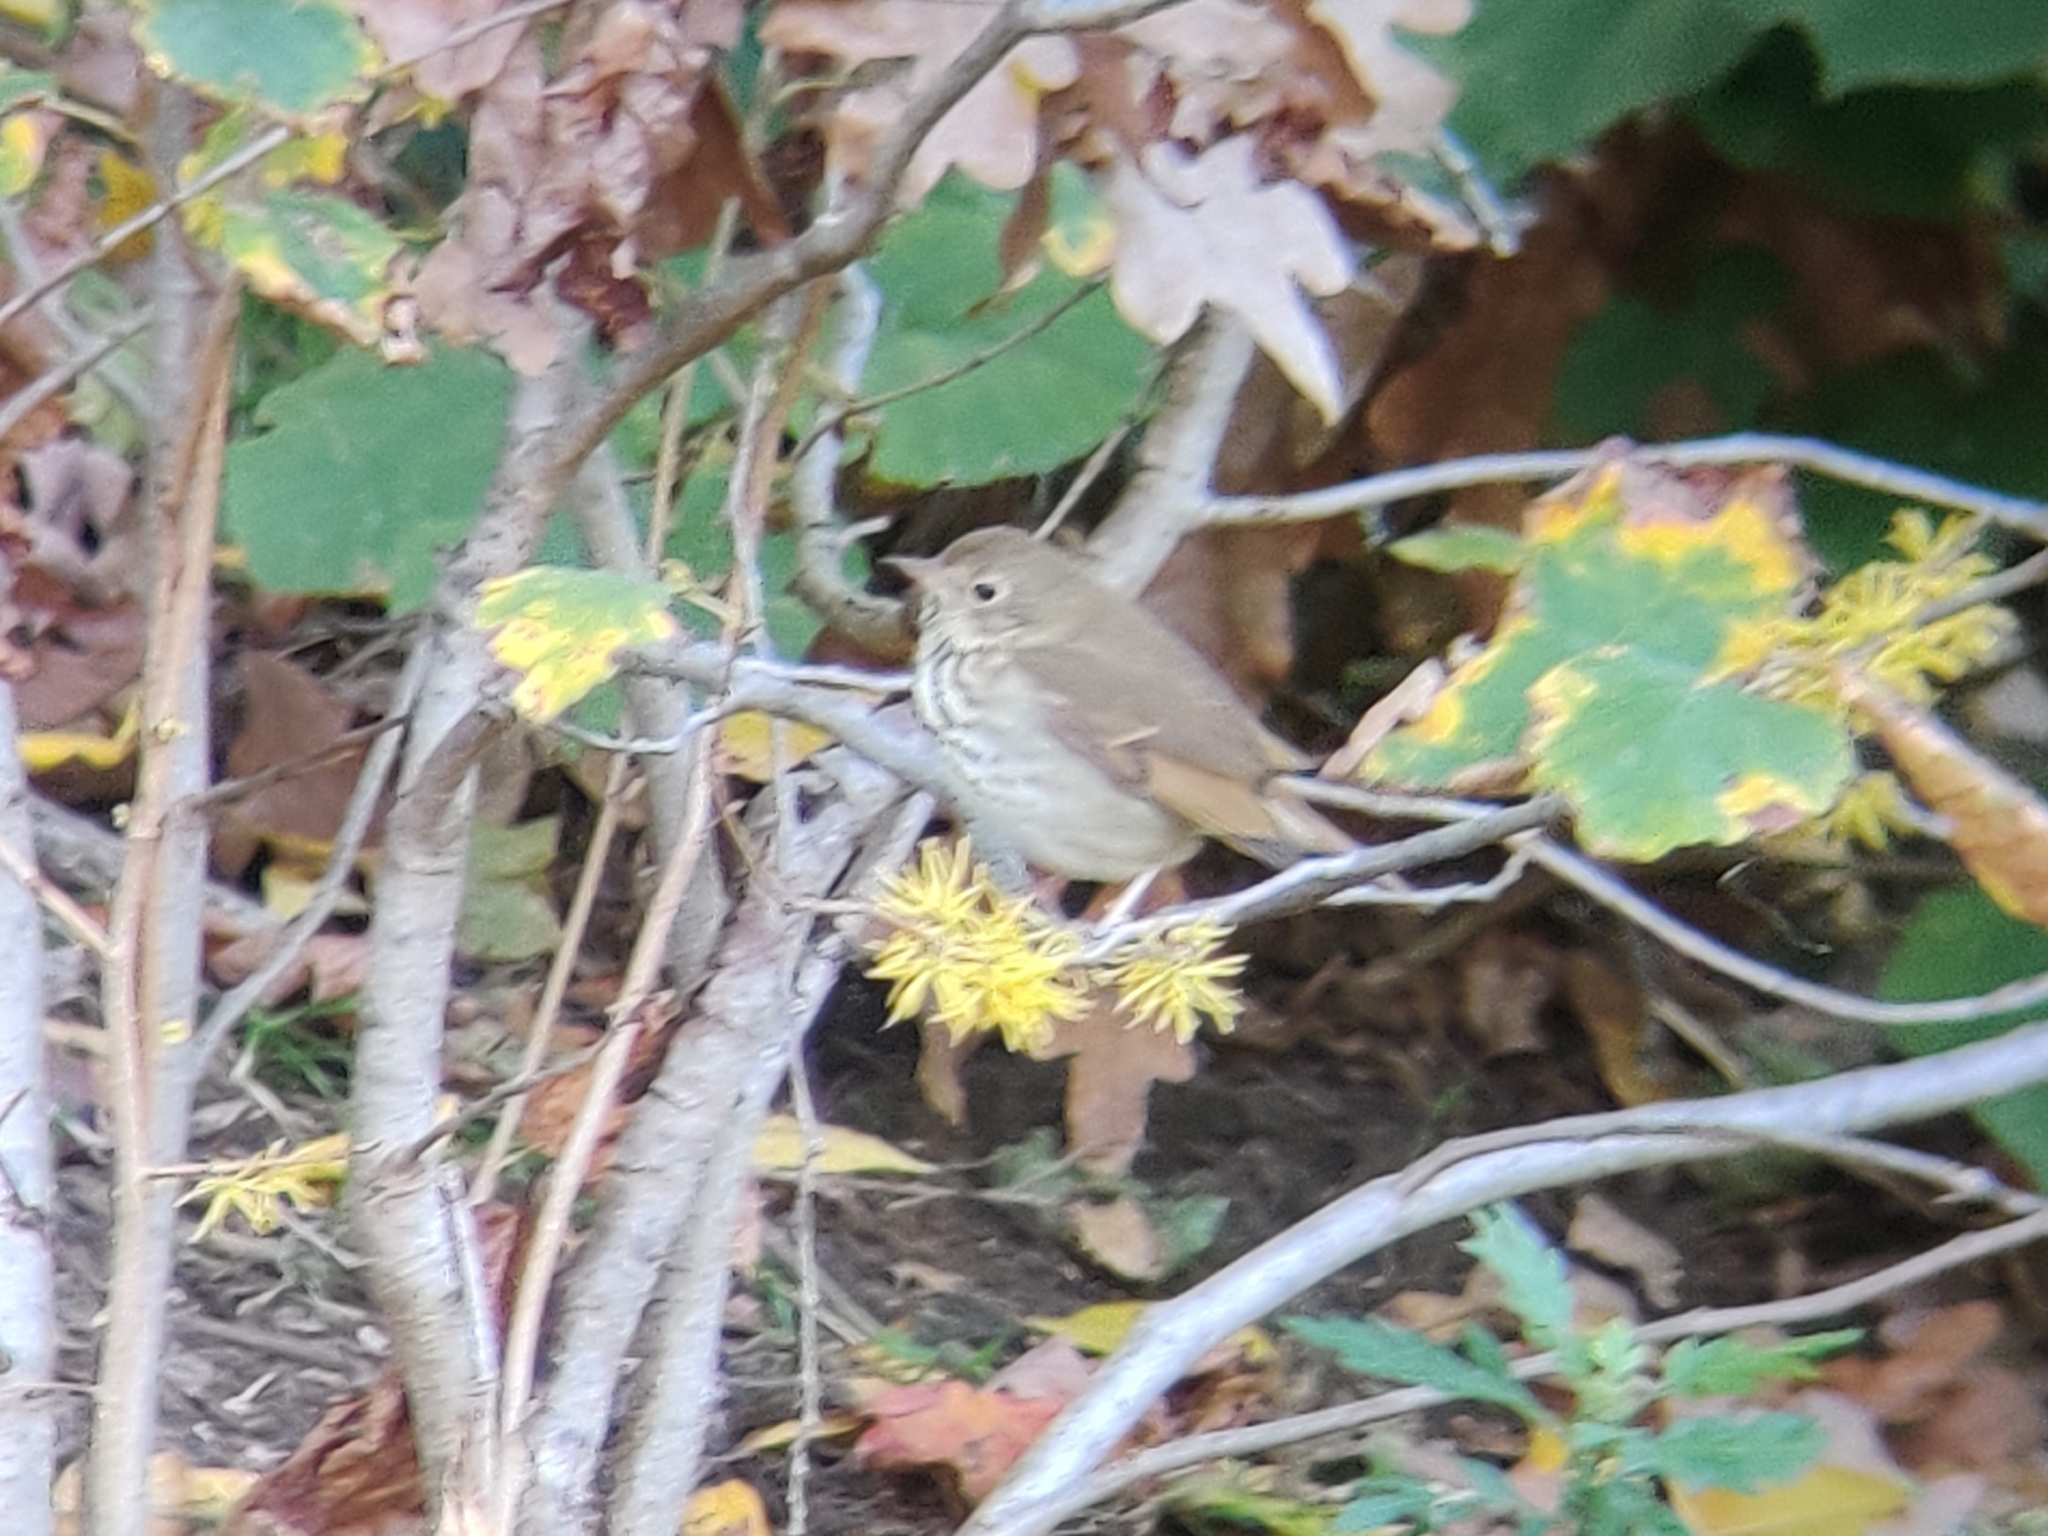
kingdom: Animalia
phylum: Chordata
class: Aves
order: Passeriformes
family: Turdidae
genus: Catharus
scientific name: Catharus guttatus
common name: Hermit thrush
